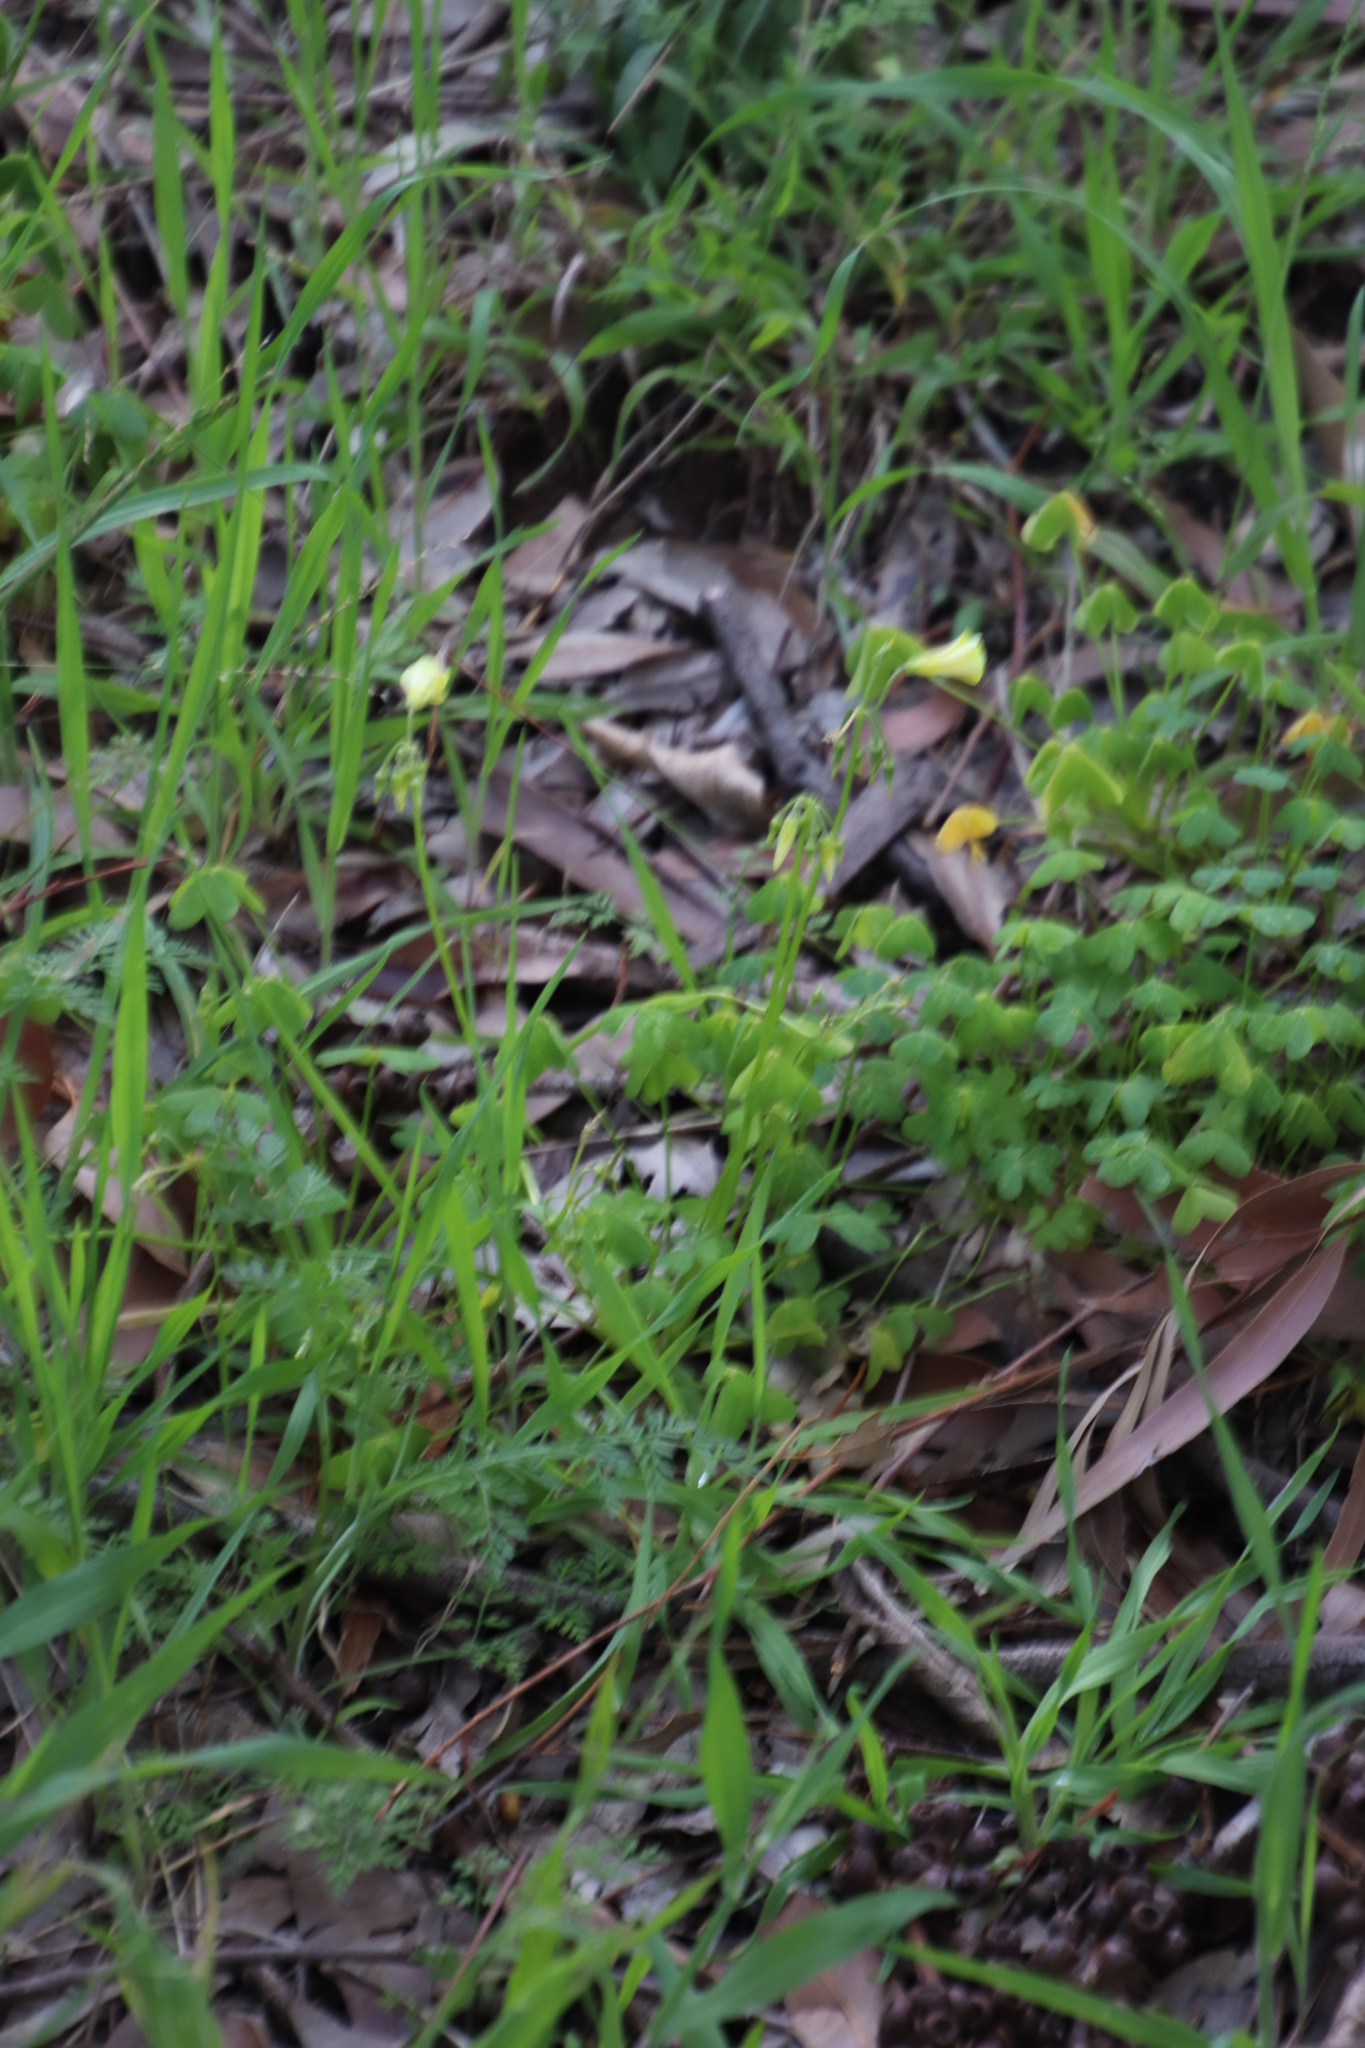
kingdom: Plantae
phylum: Tracheophyta
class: Magnoliopsida
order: Oxalidales
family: Oxalidaceae
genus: Oxalis
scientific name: Oxalis pes-caprae
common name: Bermuda-buttercup
